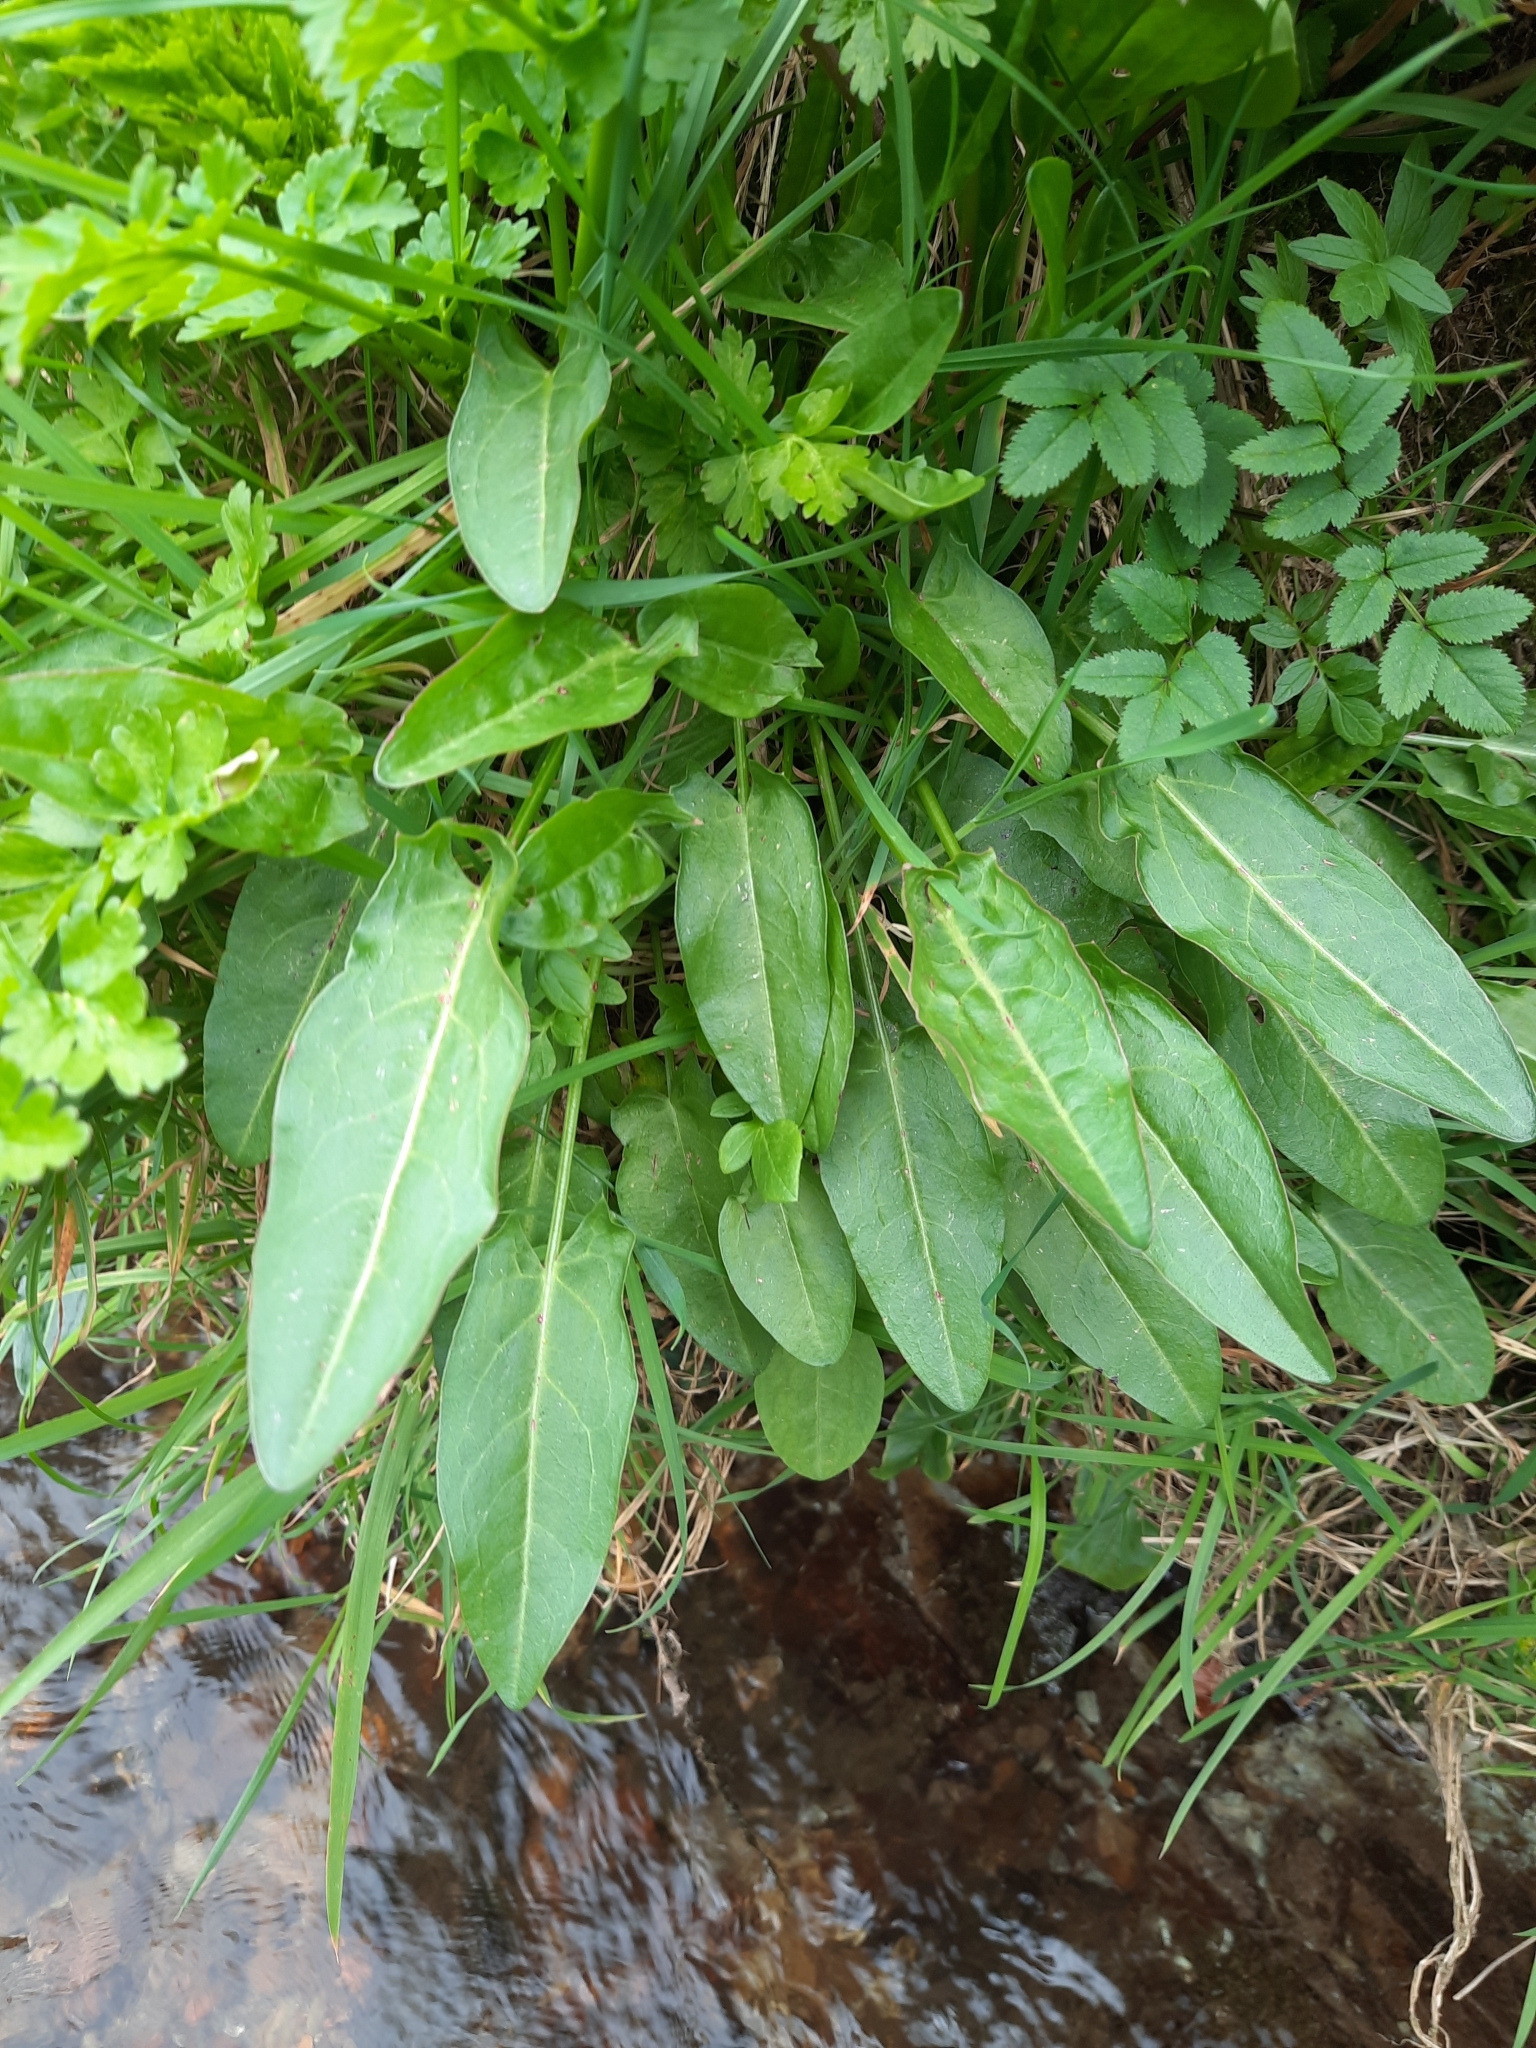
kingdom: Plantae
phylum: Tracheophyta
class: Magnoliopsida
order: Caryophyllales
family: Polygonaceae
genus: Rumex
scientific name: Rumex acetosa
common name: Garden sorrel
